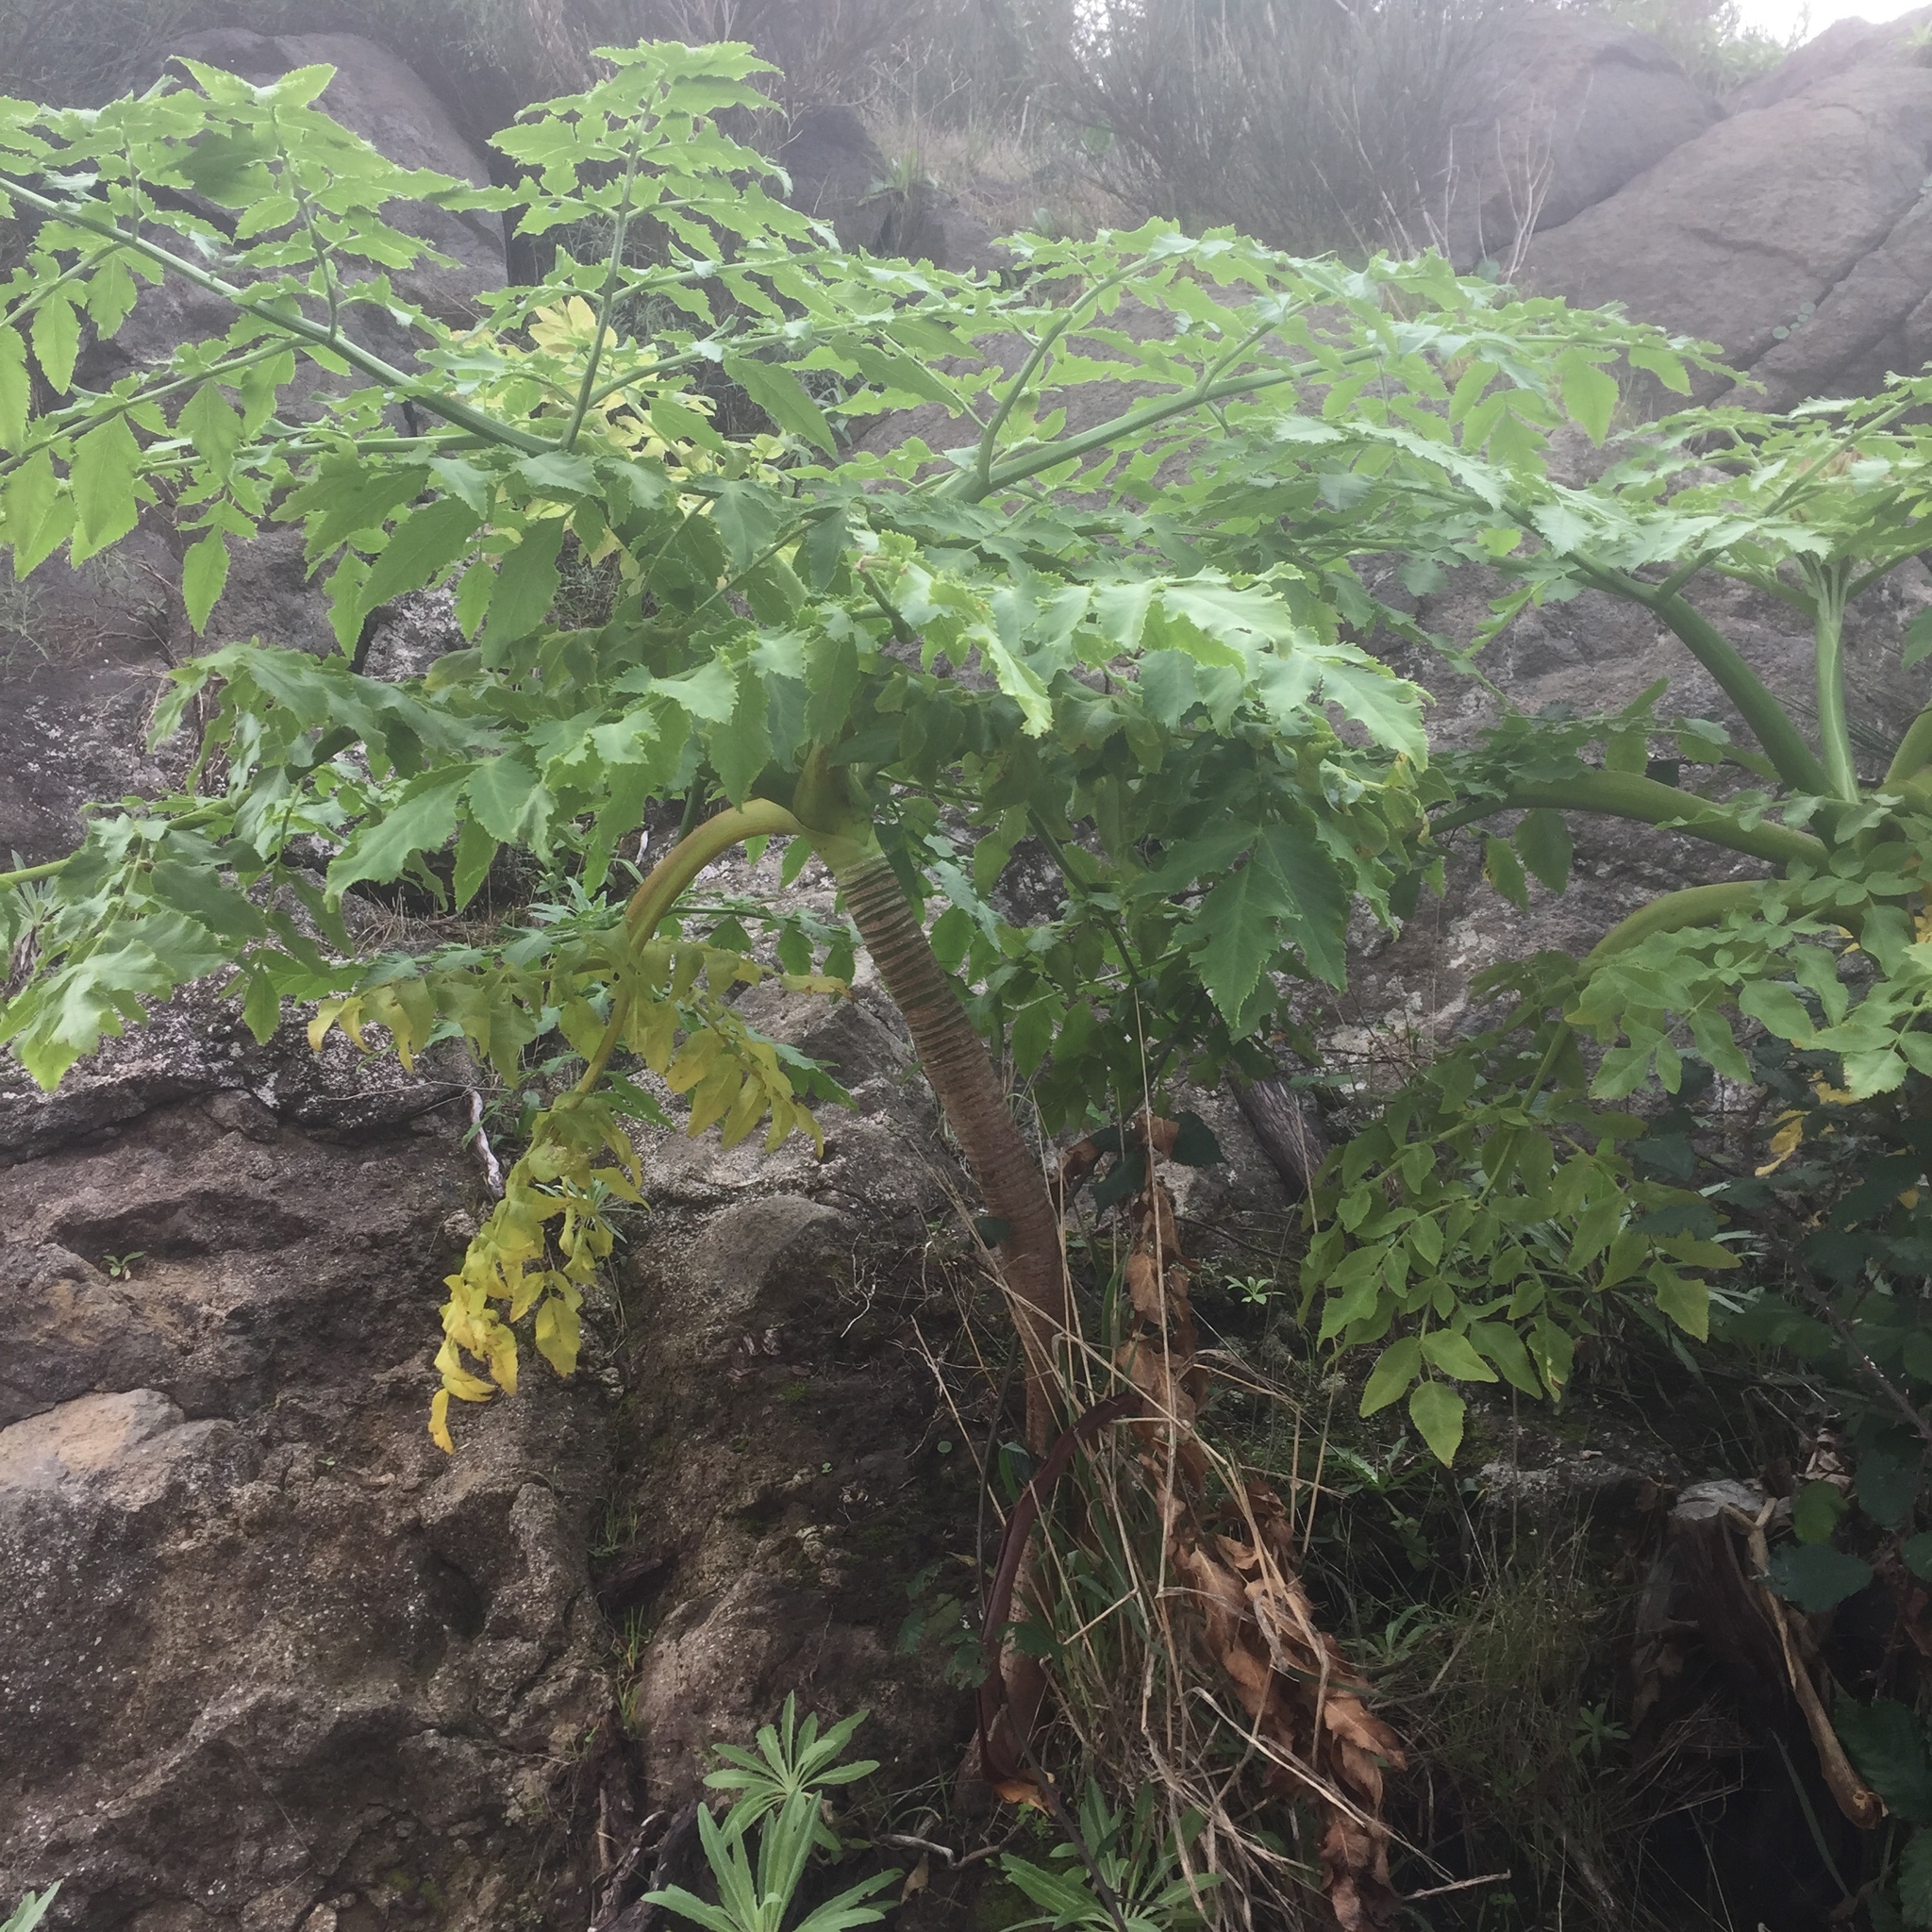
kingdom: Plantae
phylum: Tracheophyta
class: Magnoliopsida
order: Apiales
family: Apiaceae
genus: Daucus
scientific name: Daucus decipiens
